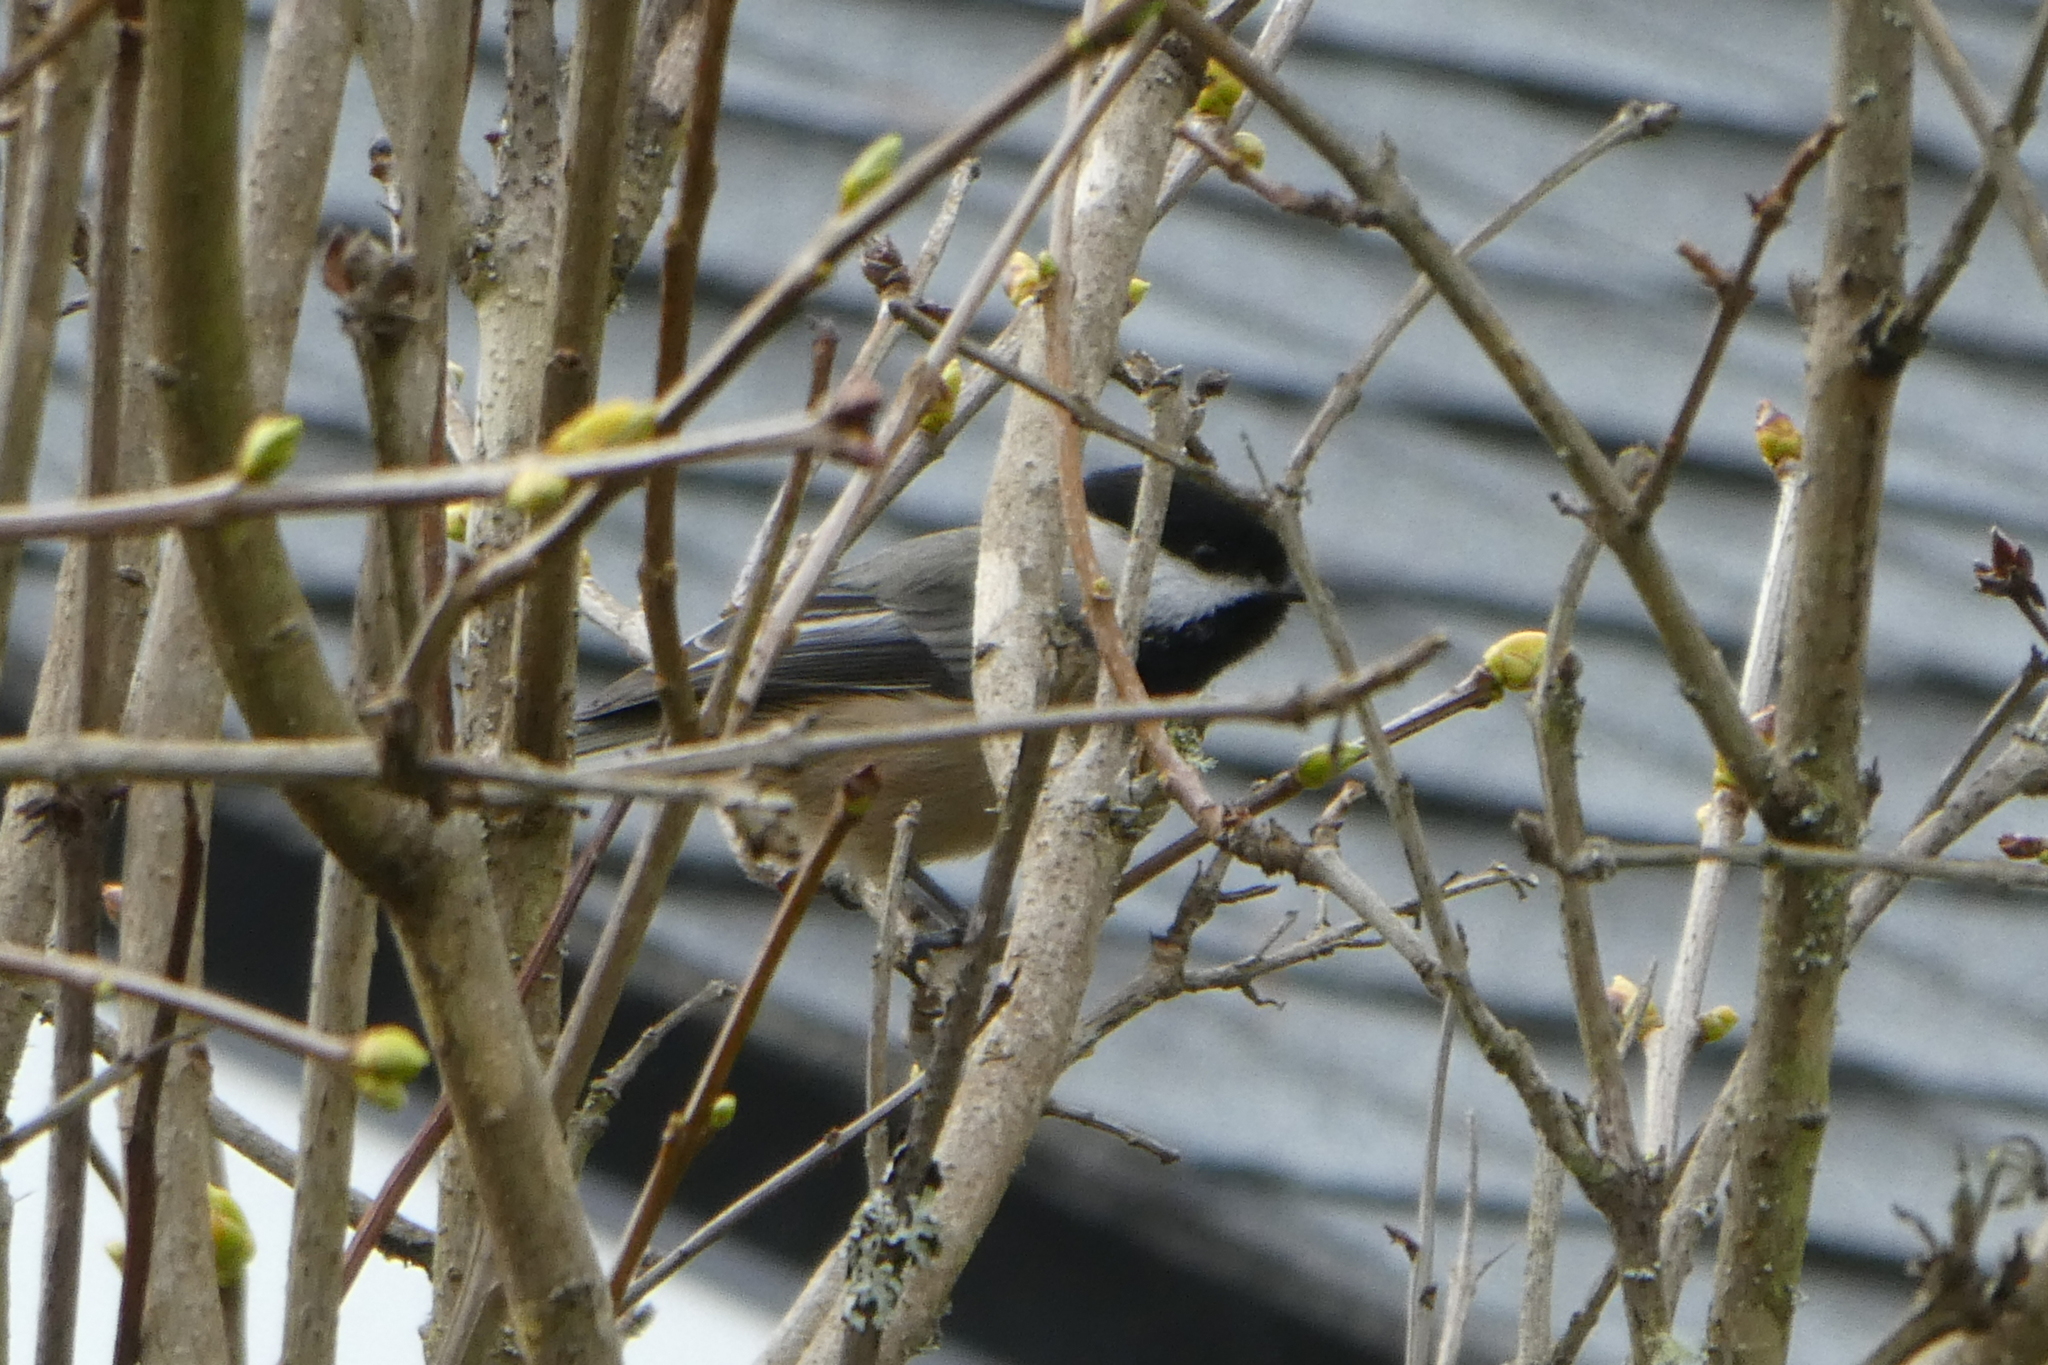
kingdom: Animalia
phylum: Chordata
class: Aves
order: Passeriformes
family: Paridae
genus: Poecile
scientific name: Poecile atricapillus
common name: Black-capped chickadee
